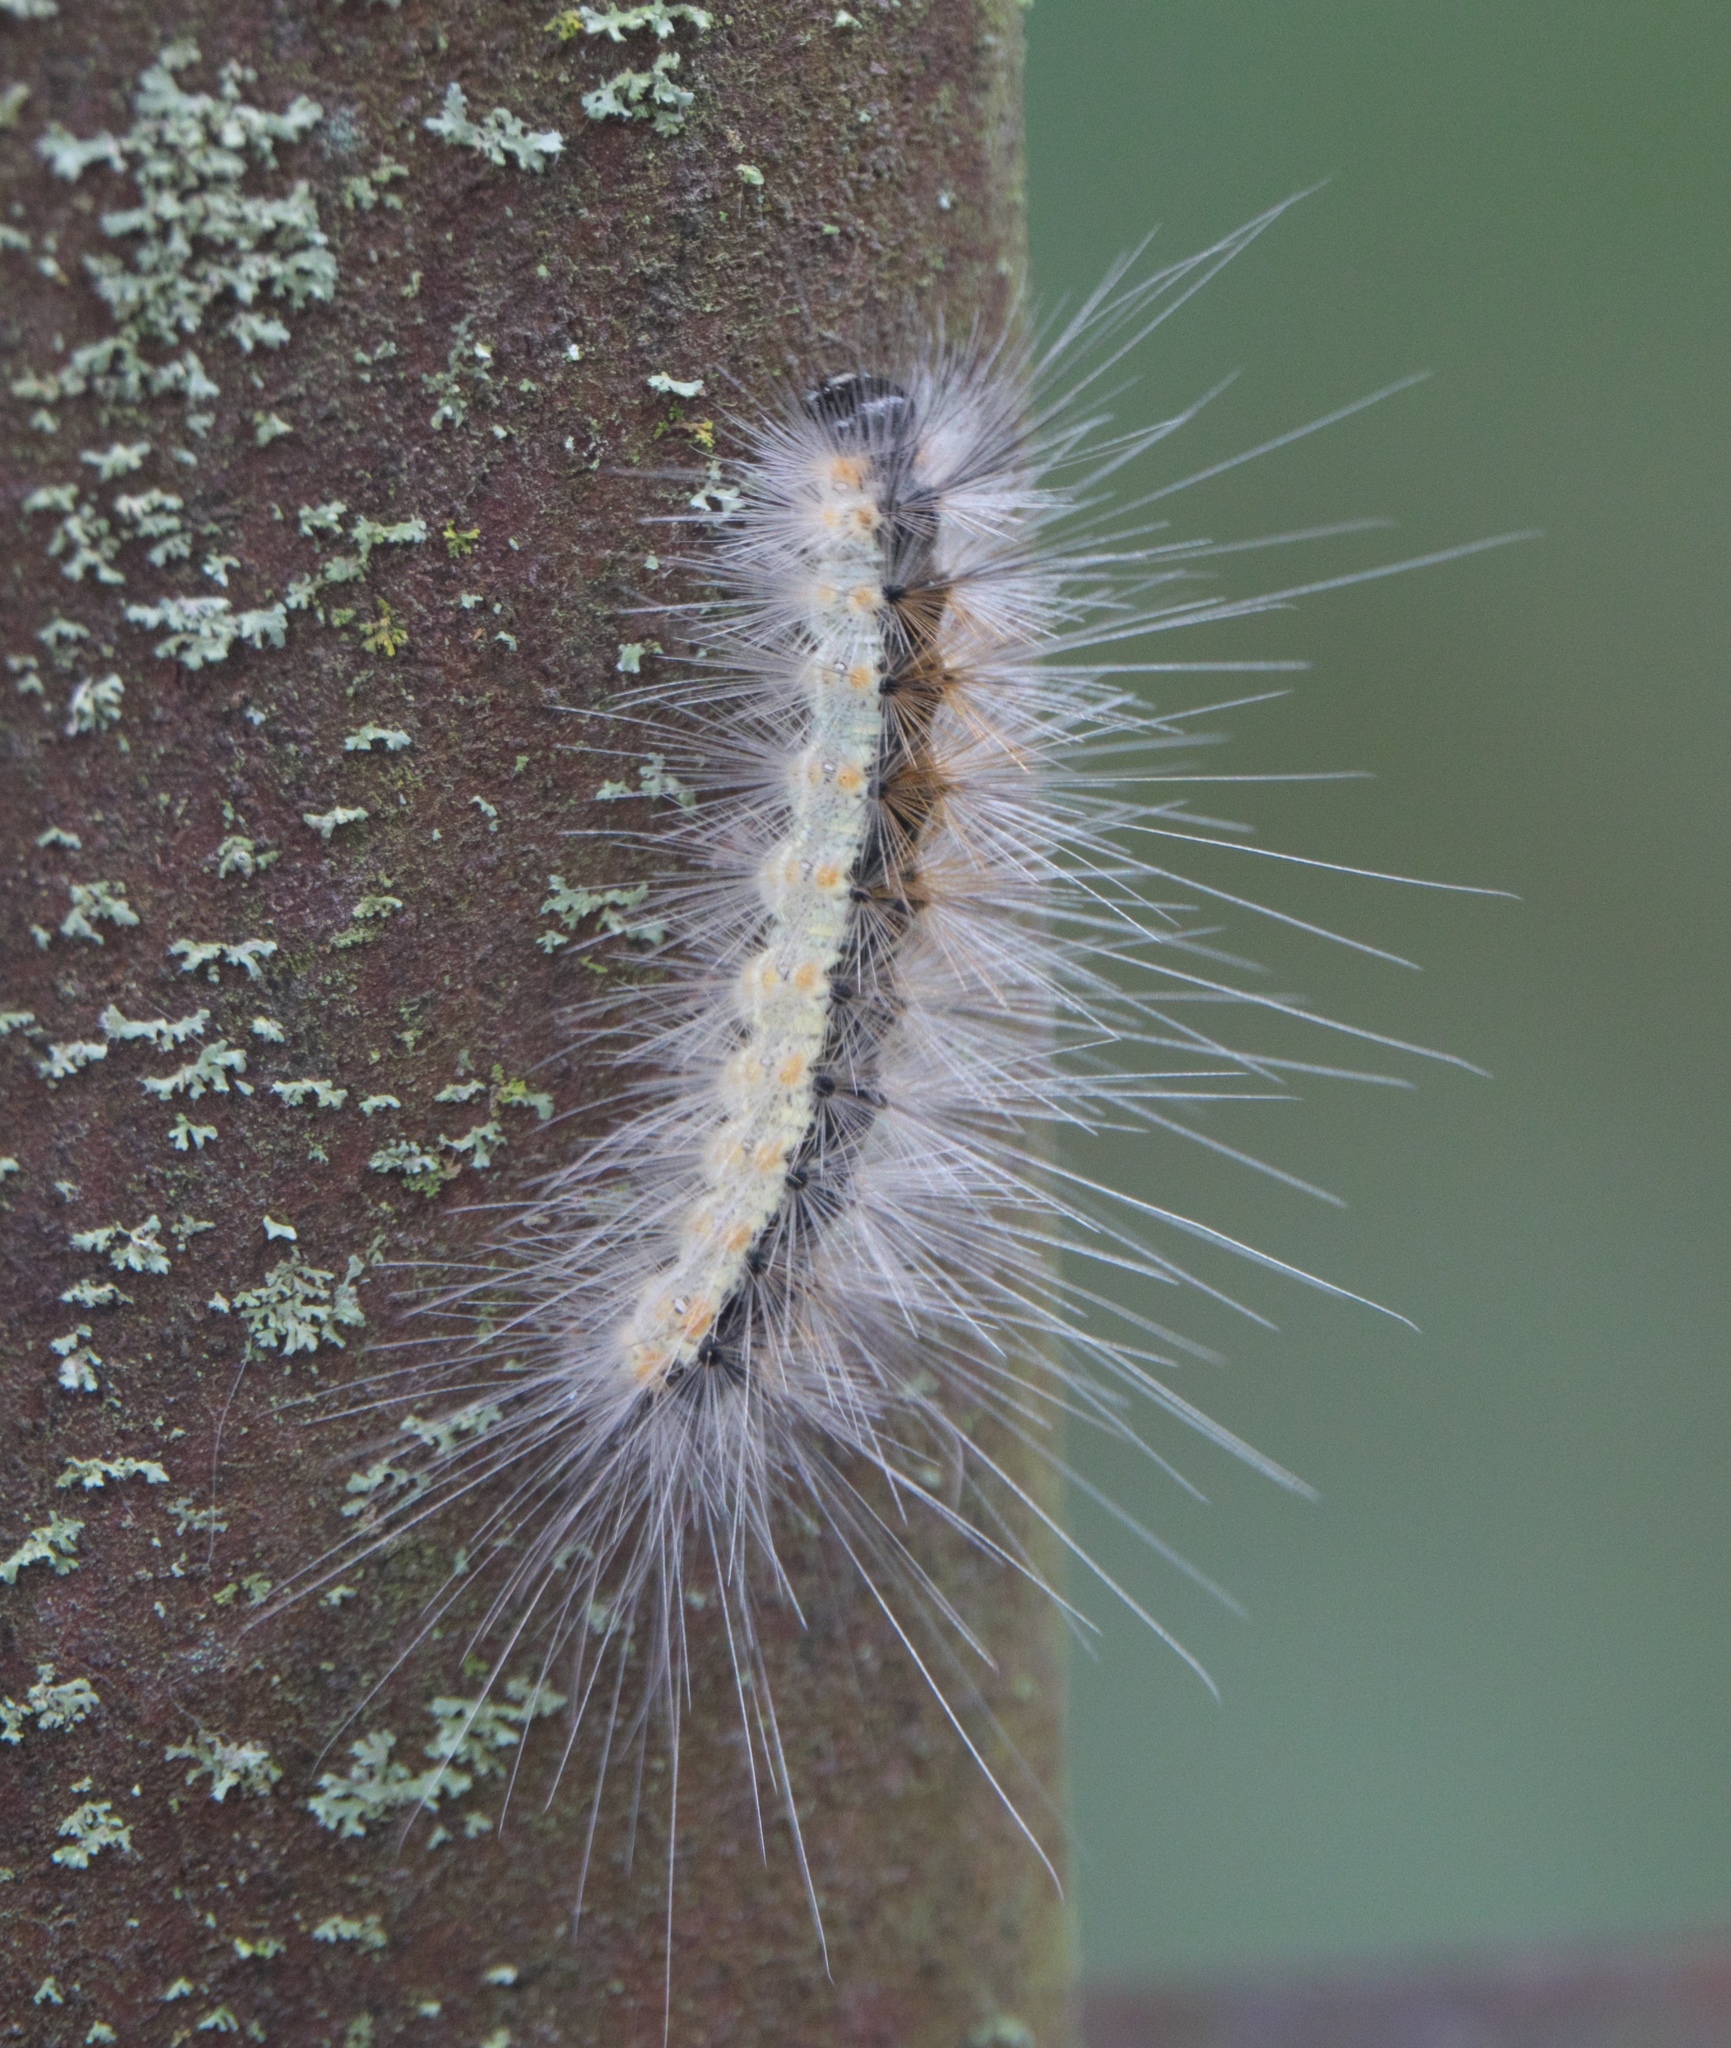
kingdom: Animalia
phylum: Arthropoda
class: Insecta
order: Lepidoptera
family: Erebidae
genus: Hyphantria
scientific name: Hyphantria cunea
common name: American white moth
